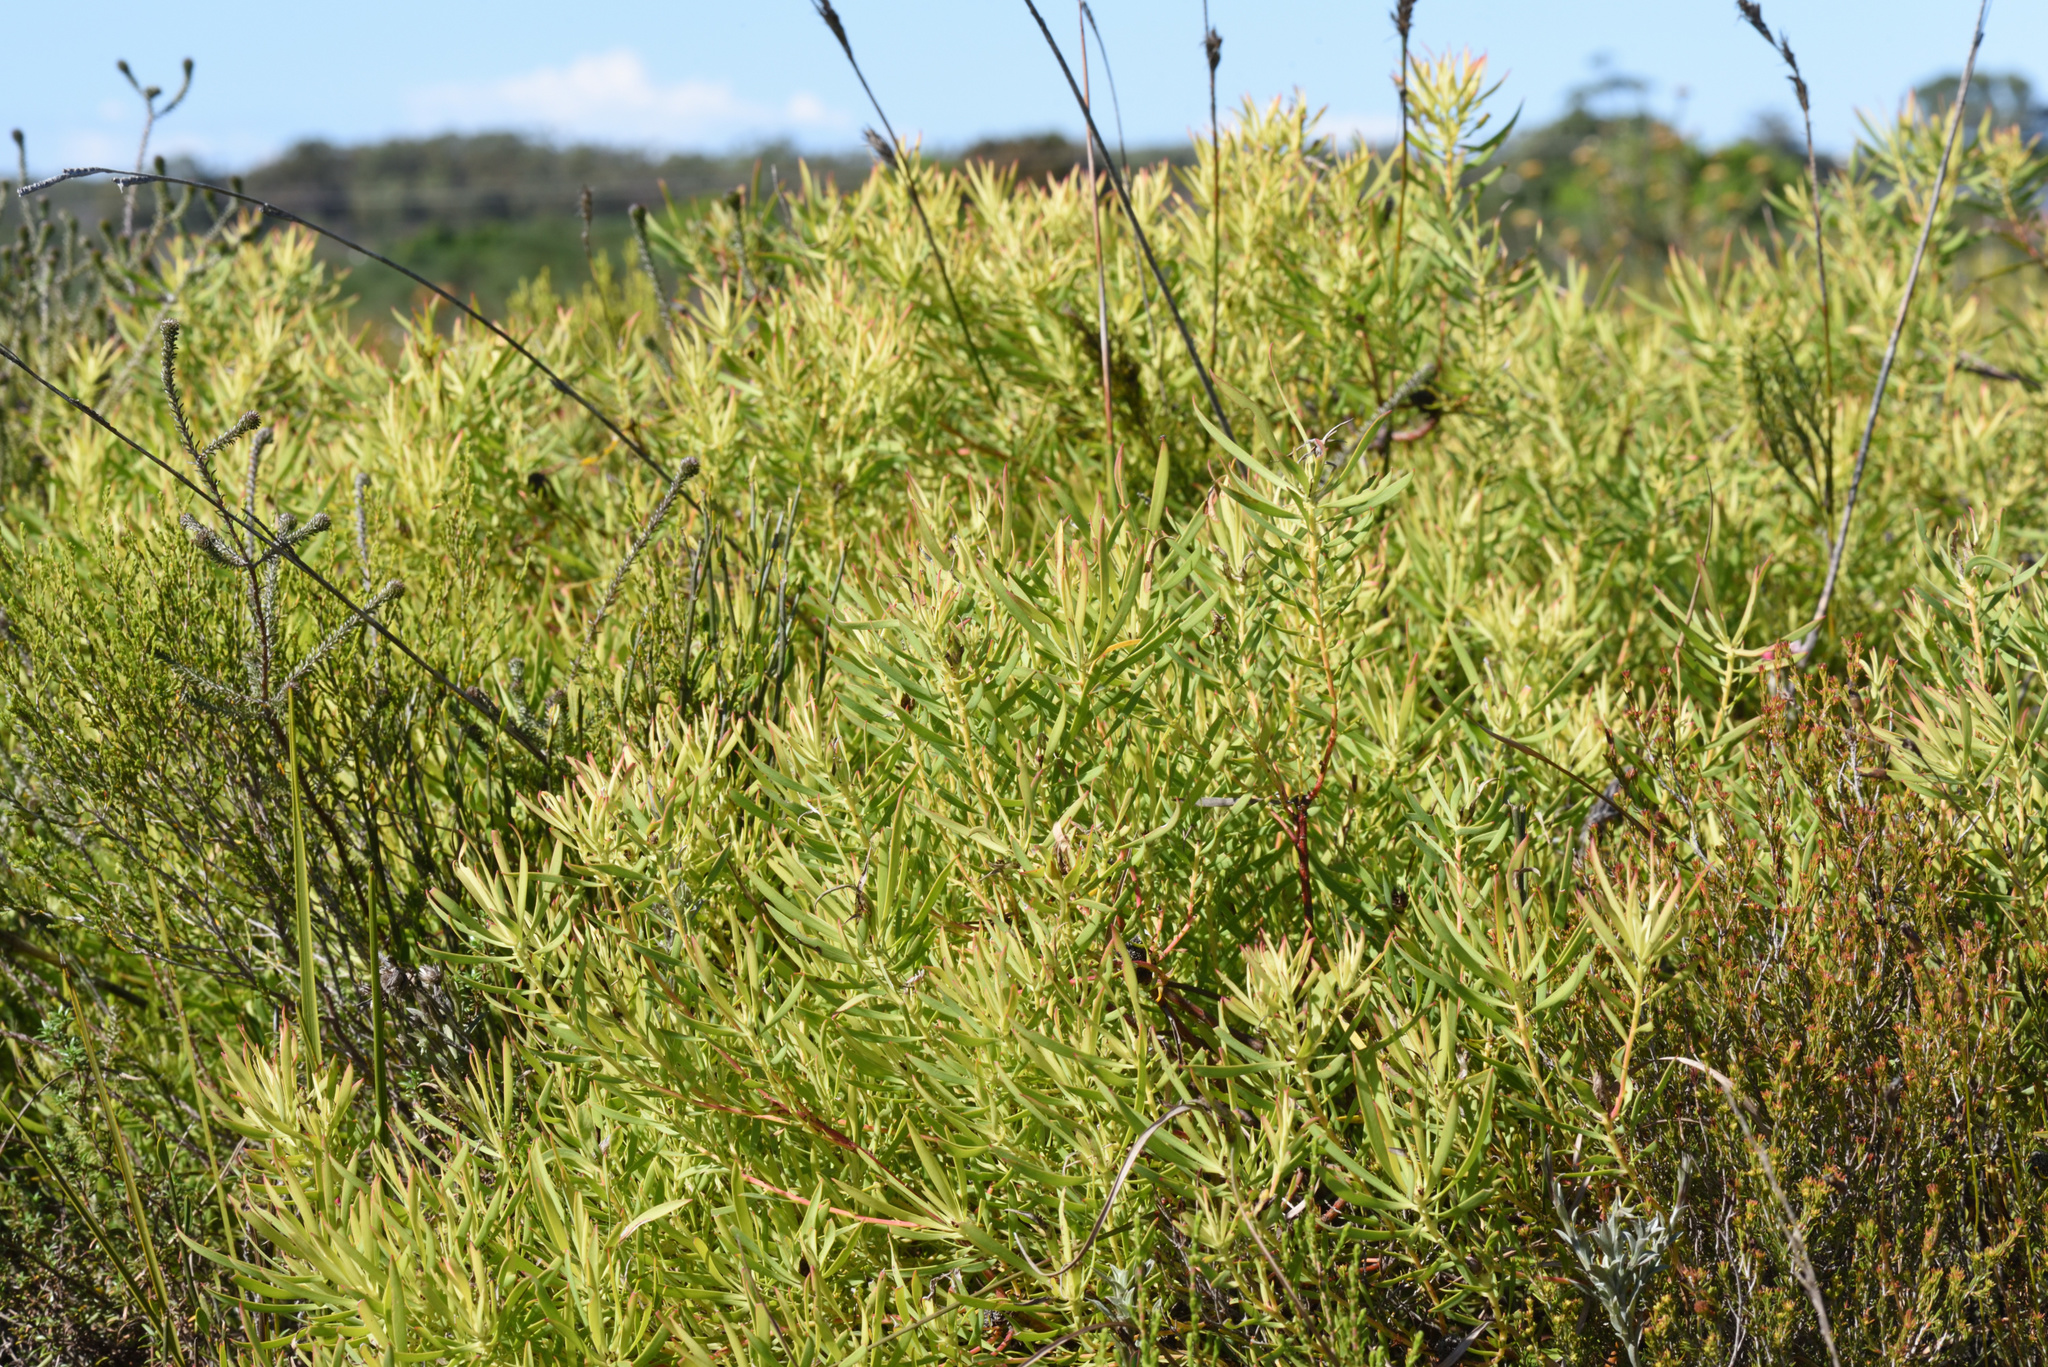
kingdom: Plantae
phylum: Tracheophyta
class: Magnoliopsida
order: Proteales
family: Proteaceae
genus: Leucadendron
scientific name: Leucadendron salignum
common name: Common sunshine conebush
